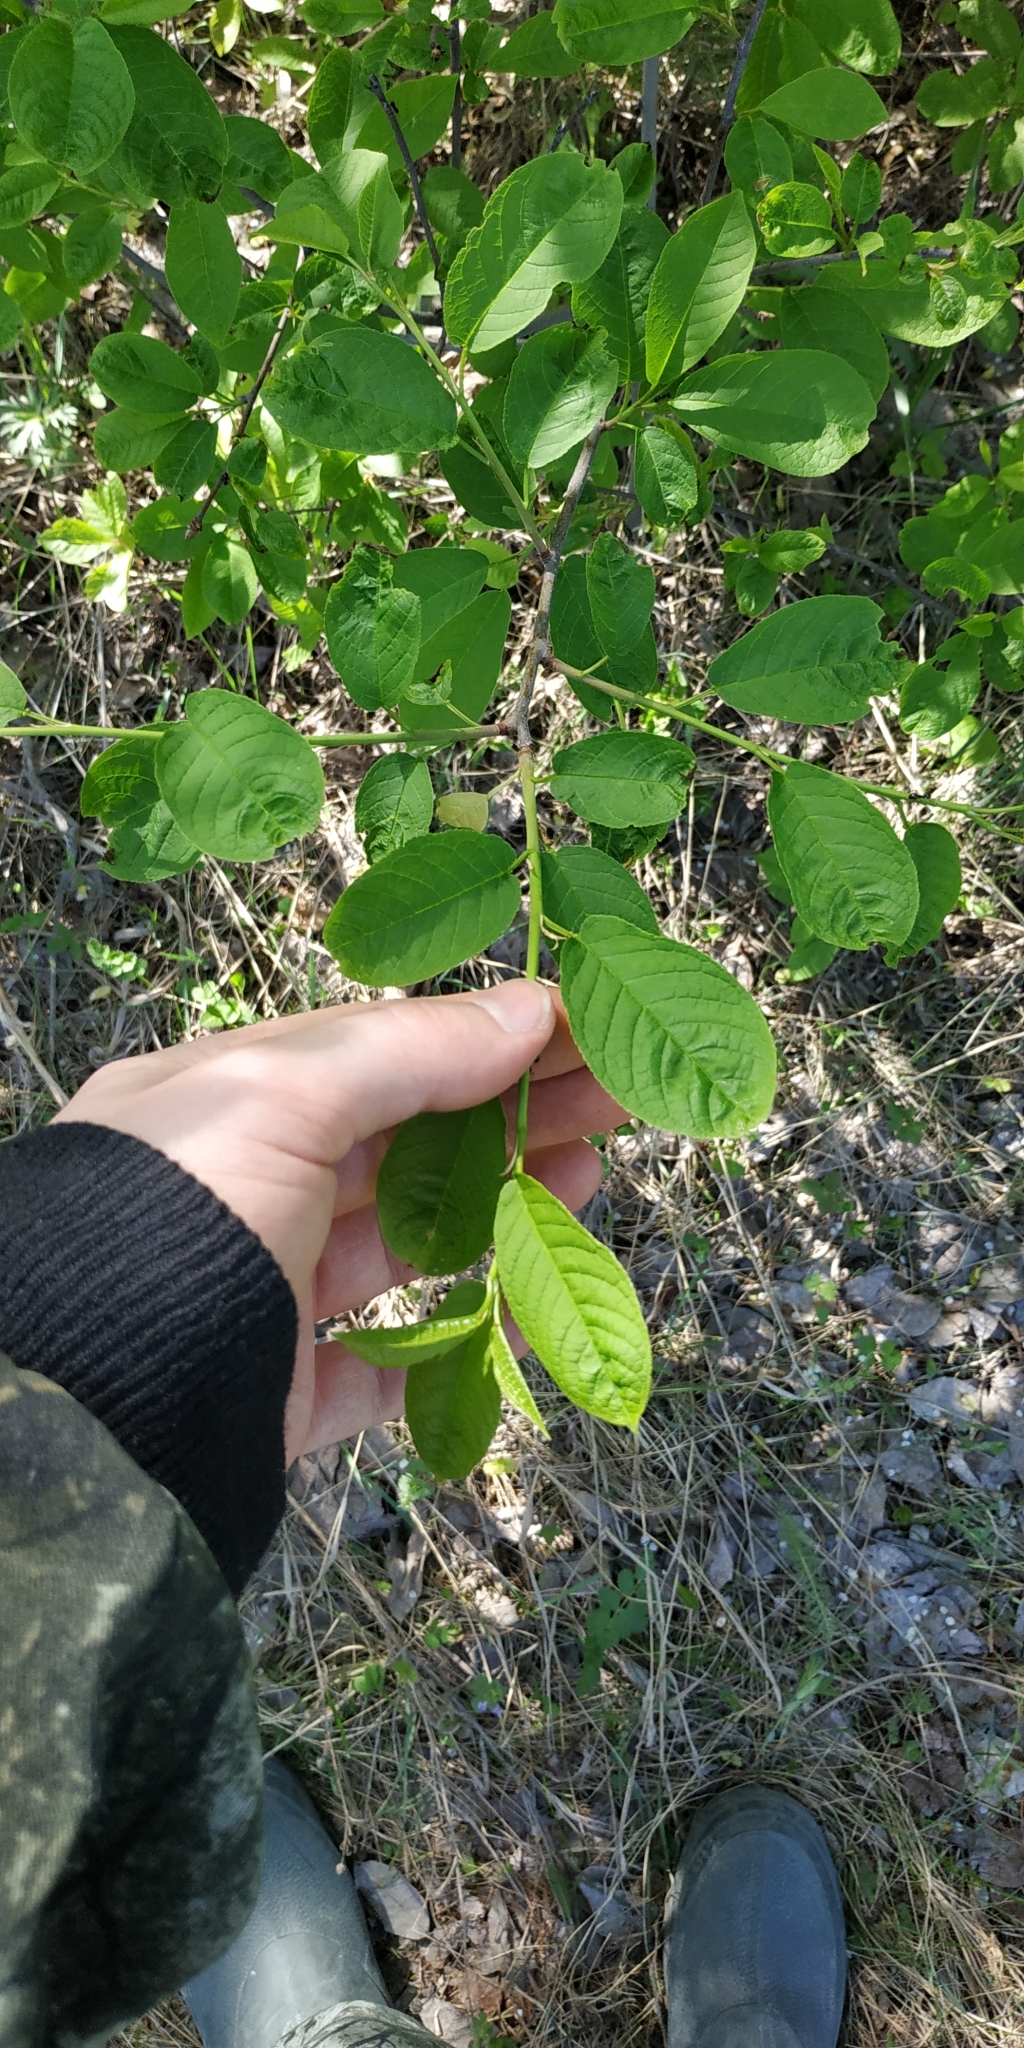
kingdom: Plantae
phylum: Tracheophyta
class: Magnoliopsida
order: Rosales
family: Rosaceae
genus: Prunus
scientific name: Prunus padus
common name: Bird cherry
